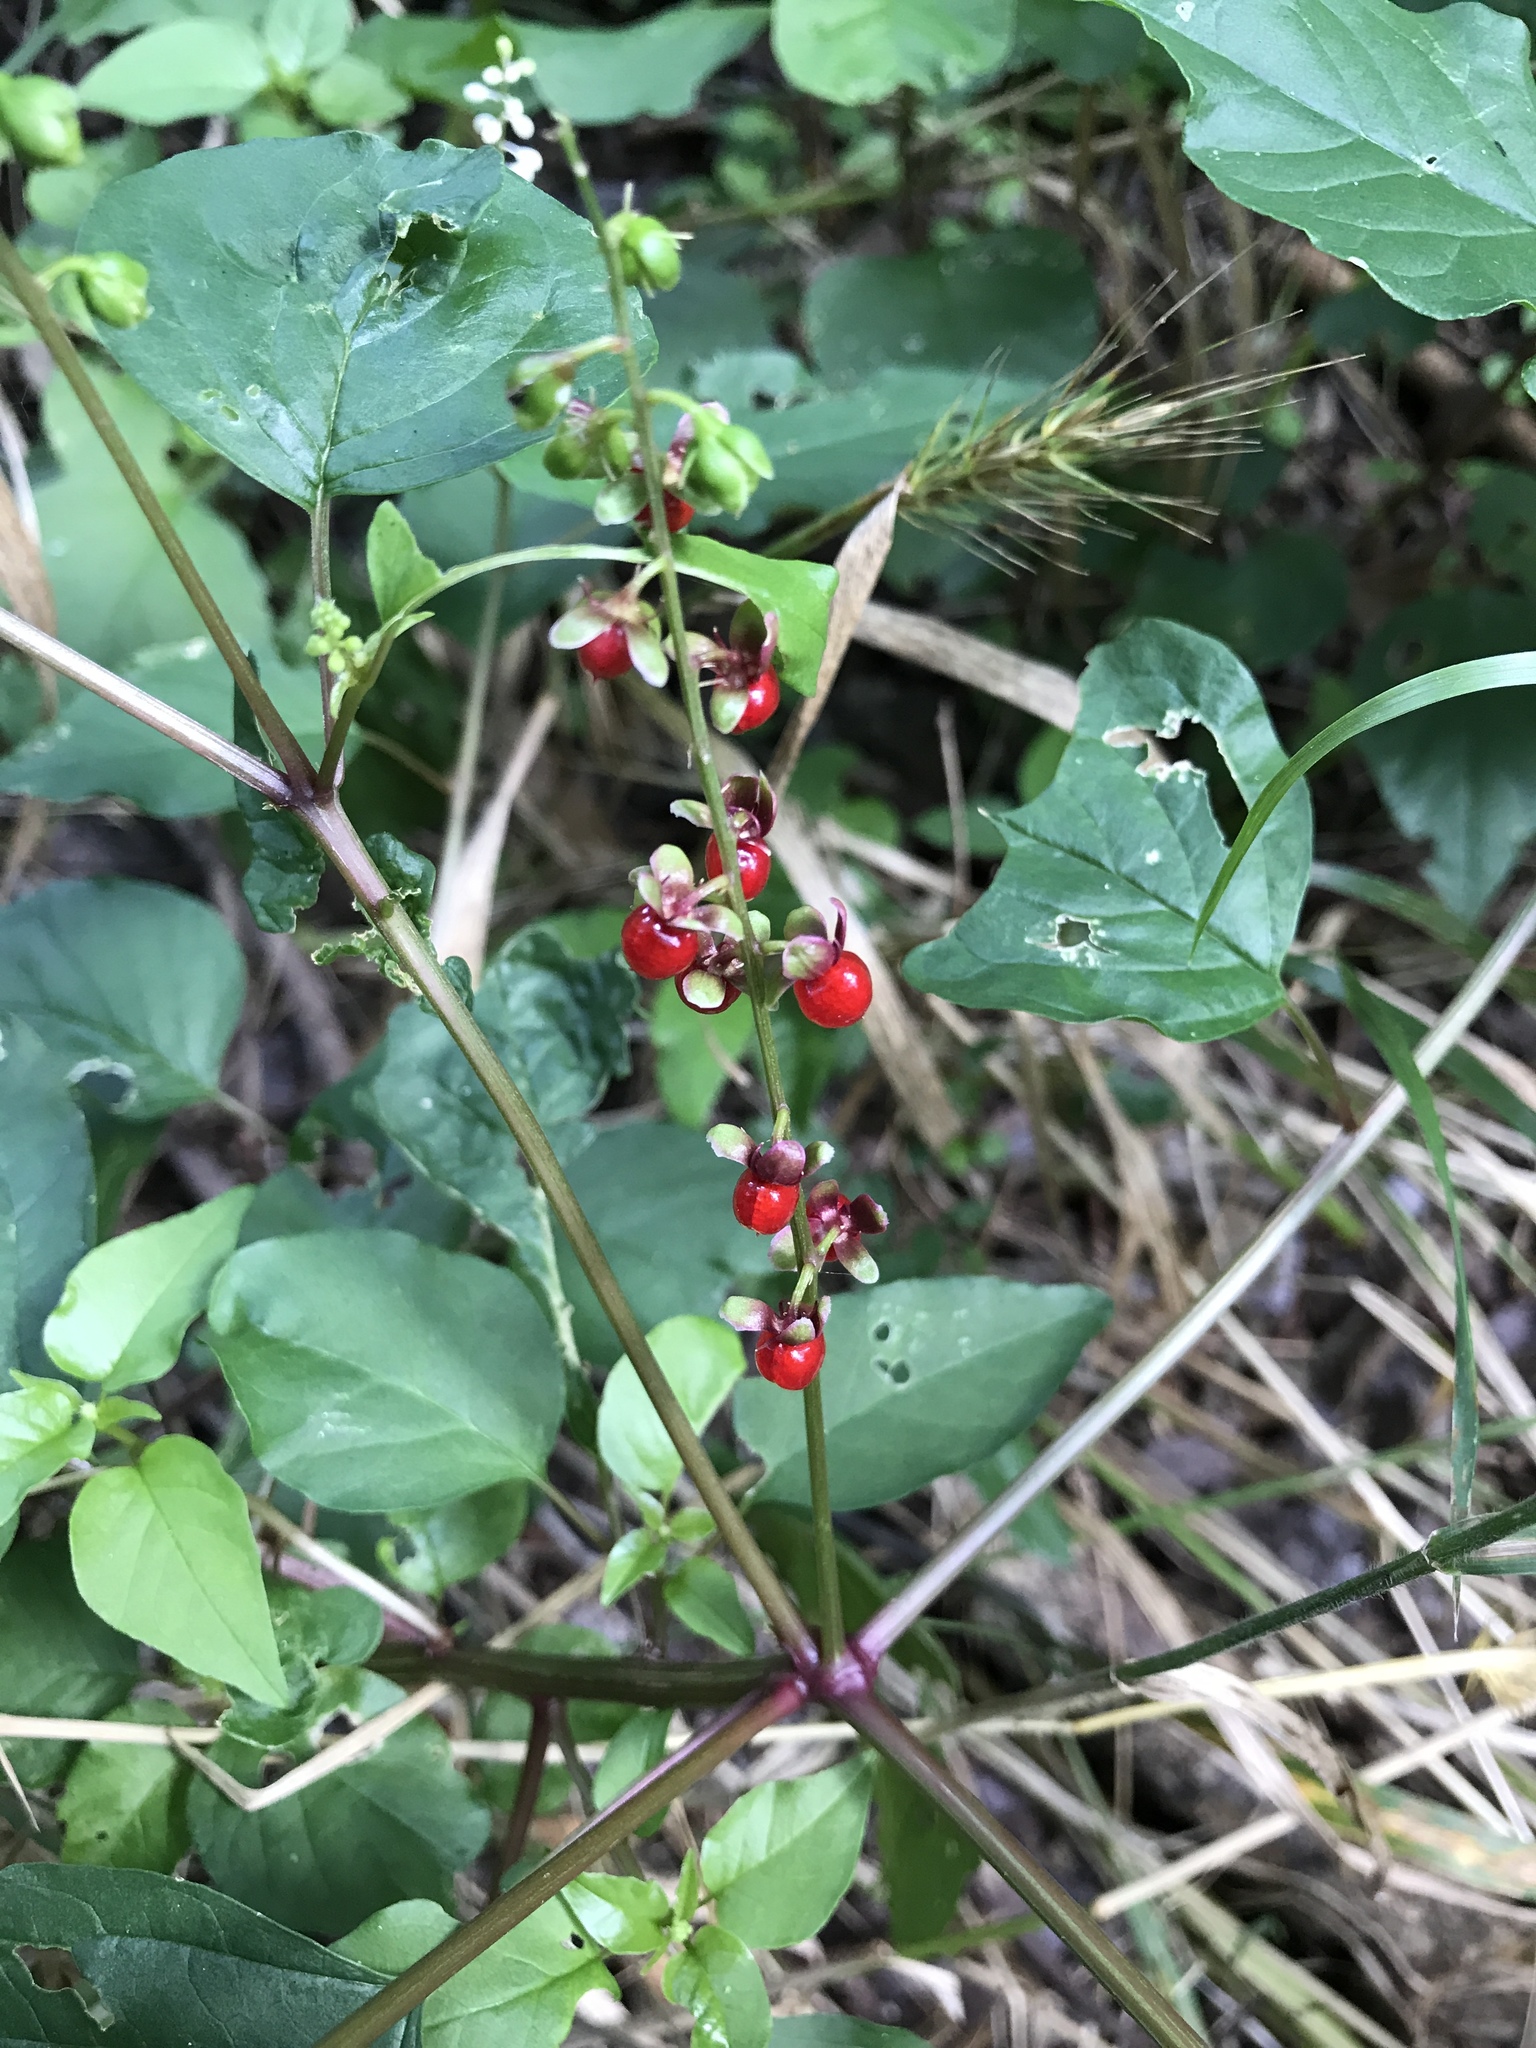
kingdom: Plantae
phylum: Tracheophyta
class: Magnoliopsida
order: Caryophyllales
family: Phytolaccaceae
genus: Rivina
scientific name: Rivina humilis
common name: Rougeplant
